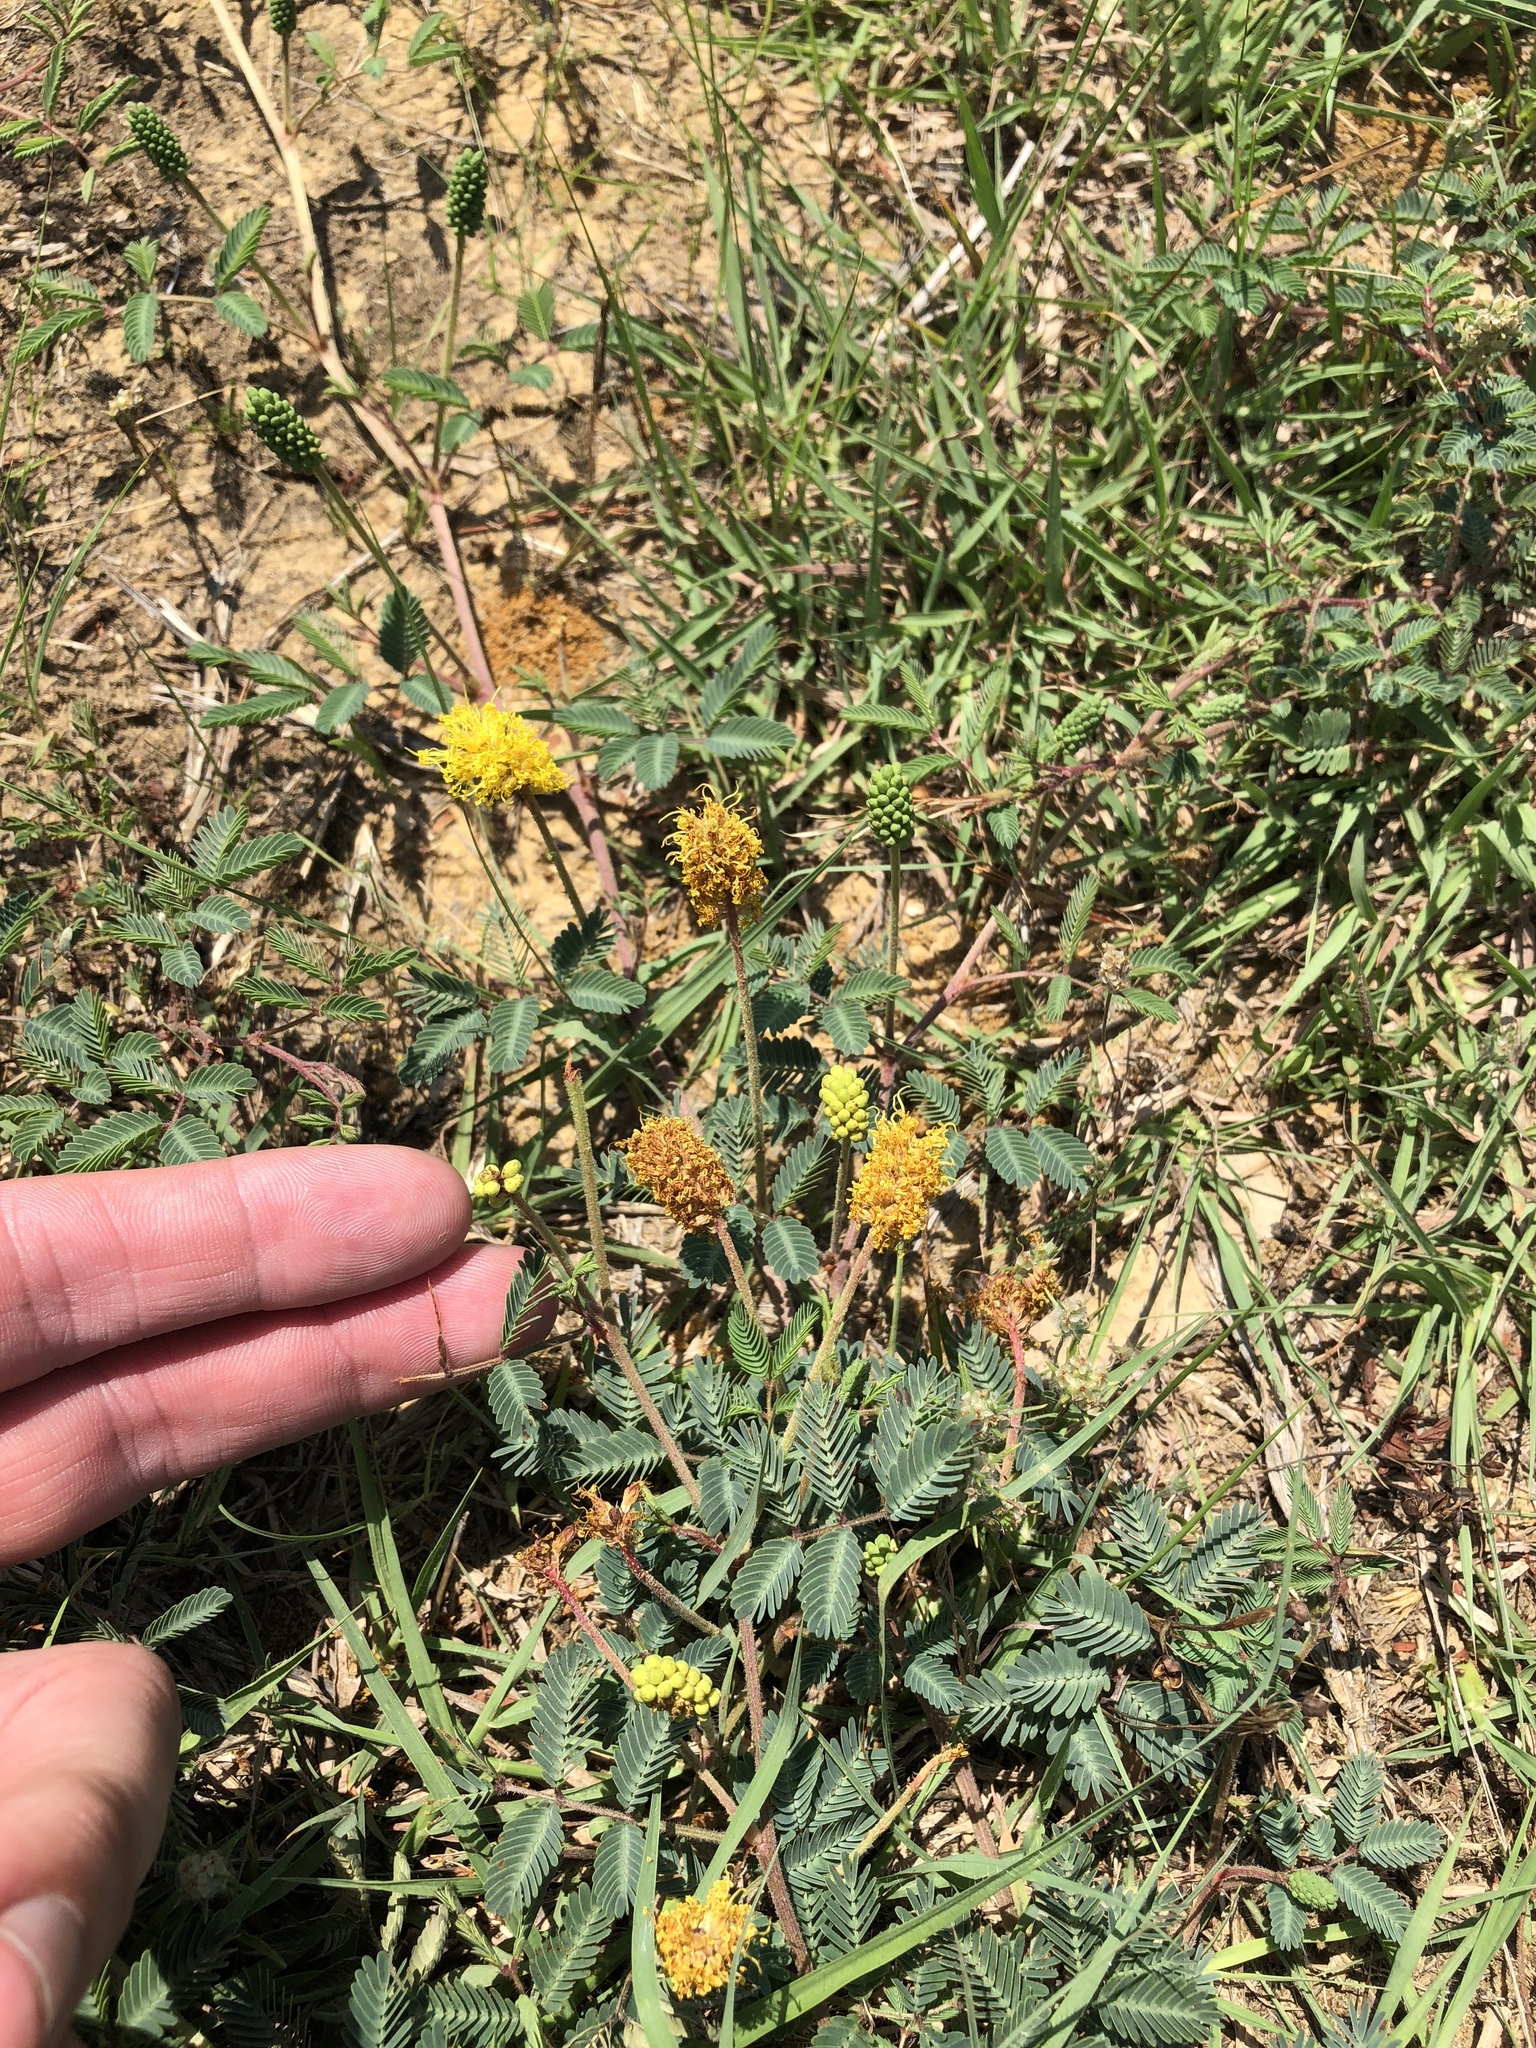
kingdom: Plantae
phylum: Tracheophyta
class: Magnoliopsida
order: Fabales
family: Fabaceae
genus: Neptunia
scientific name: Neptunia lutea
